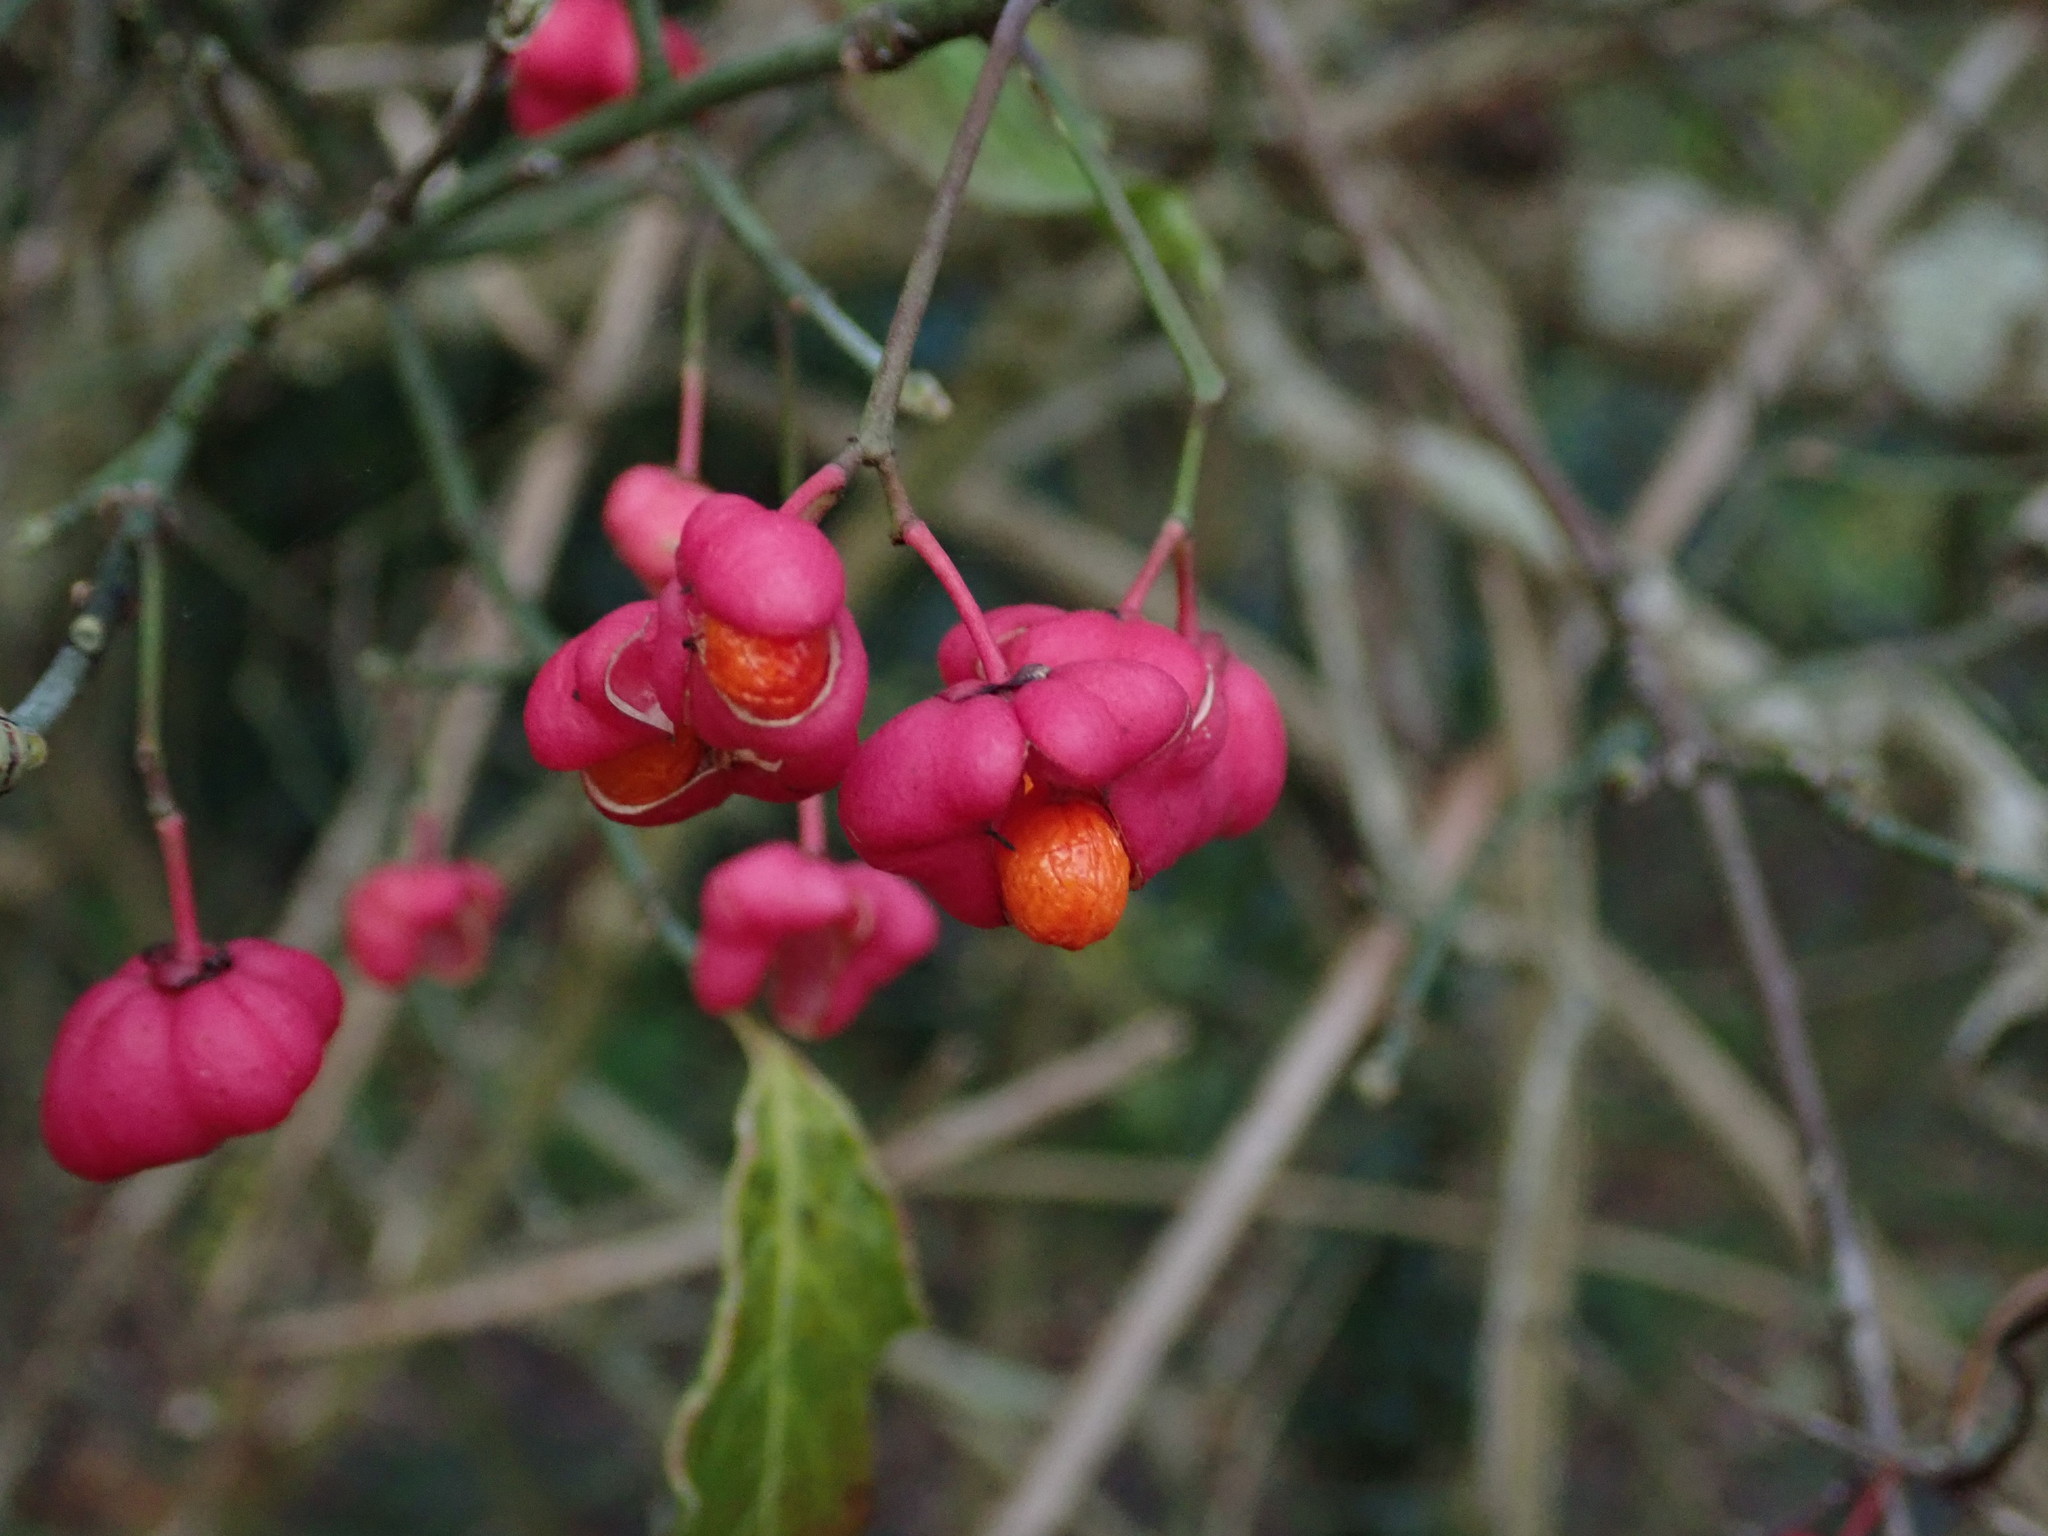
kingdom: Plantae
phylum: Tracheophyta
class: Magnoliopsida
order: Celastrales
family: Celastraceae
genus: Euonymus
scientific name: Euonymus europaeus
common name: Spindle
